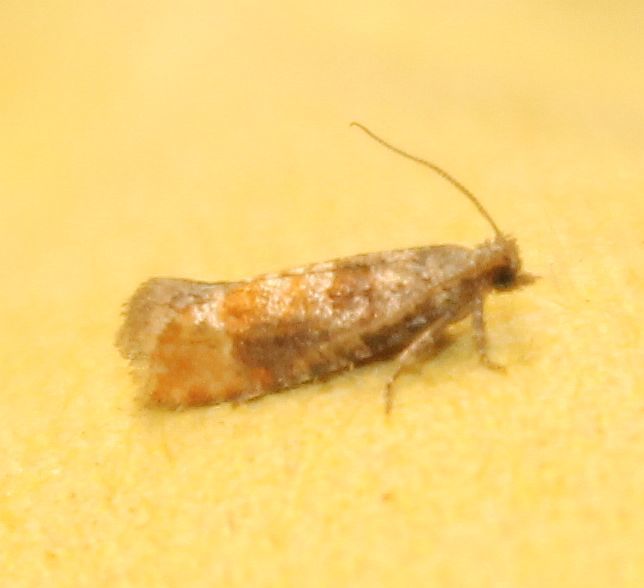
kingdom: Animalia
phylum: Arthropoda
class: Insecta
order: Lepidoptera
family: Tortricidae
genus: Clavigesta
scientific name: Clavigesta purdeyi
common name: Pine leaf-mining moth
